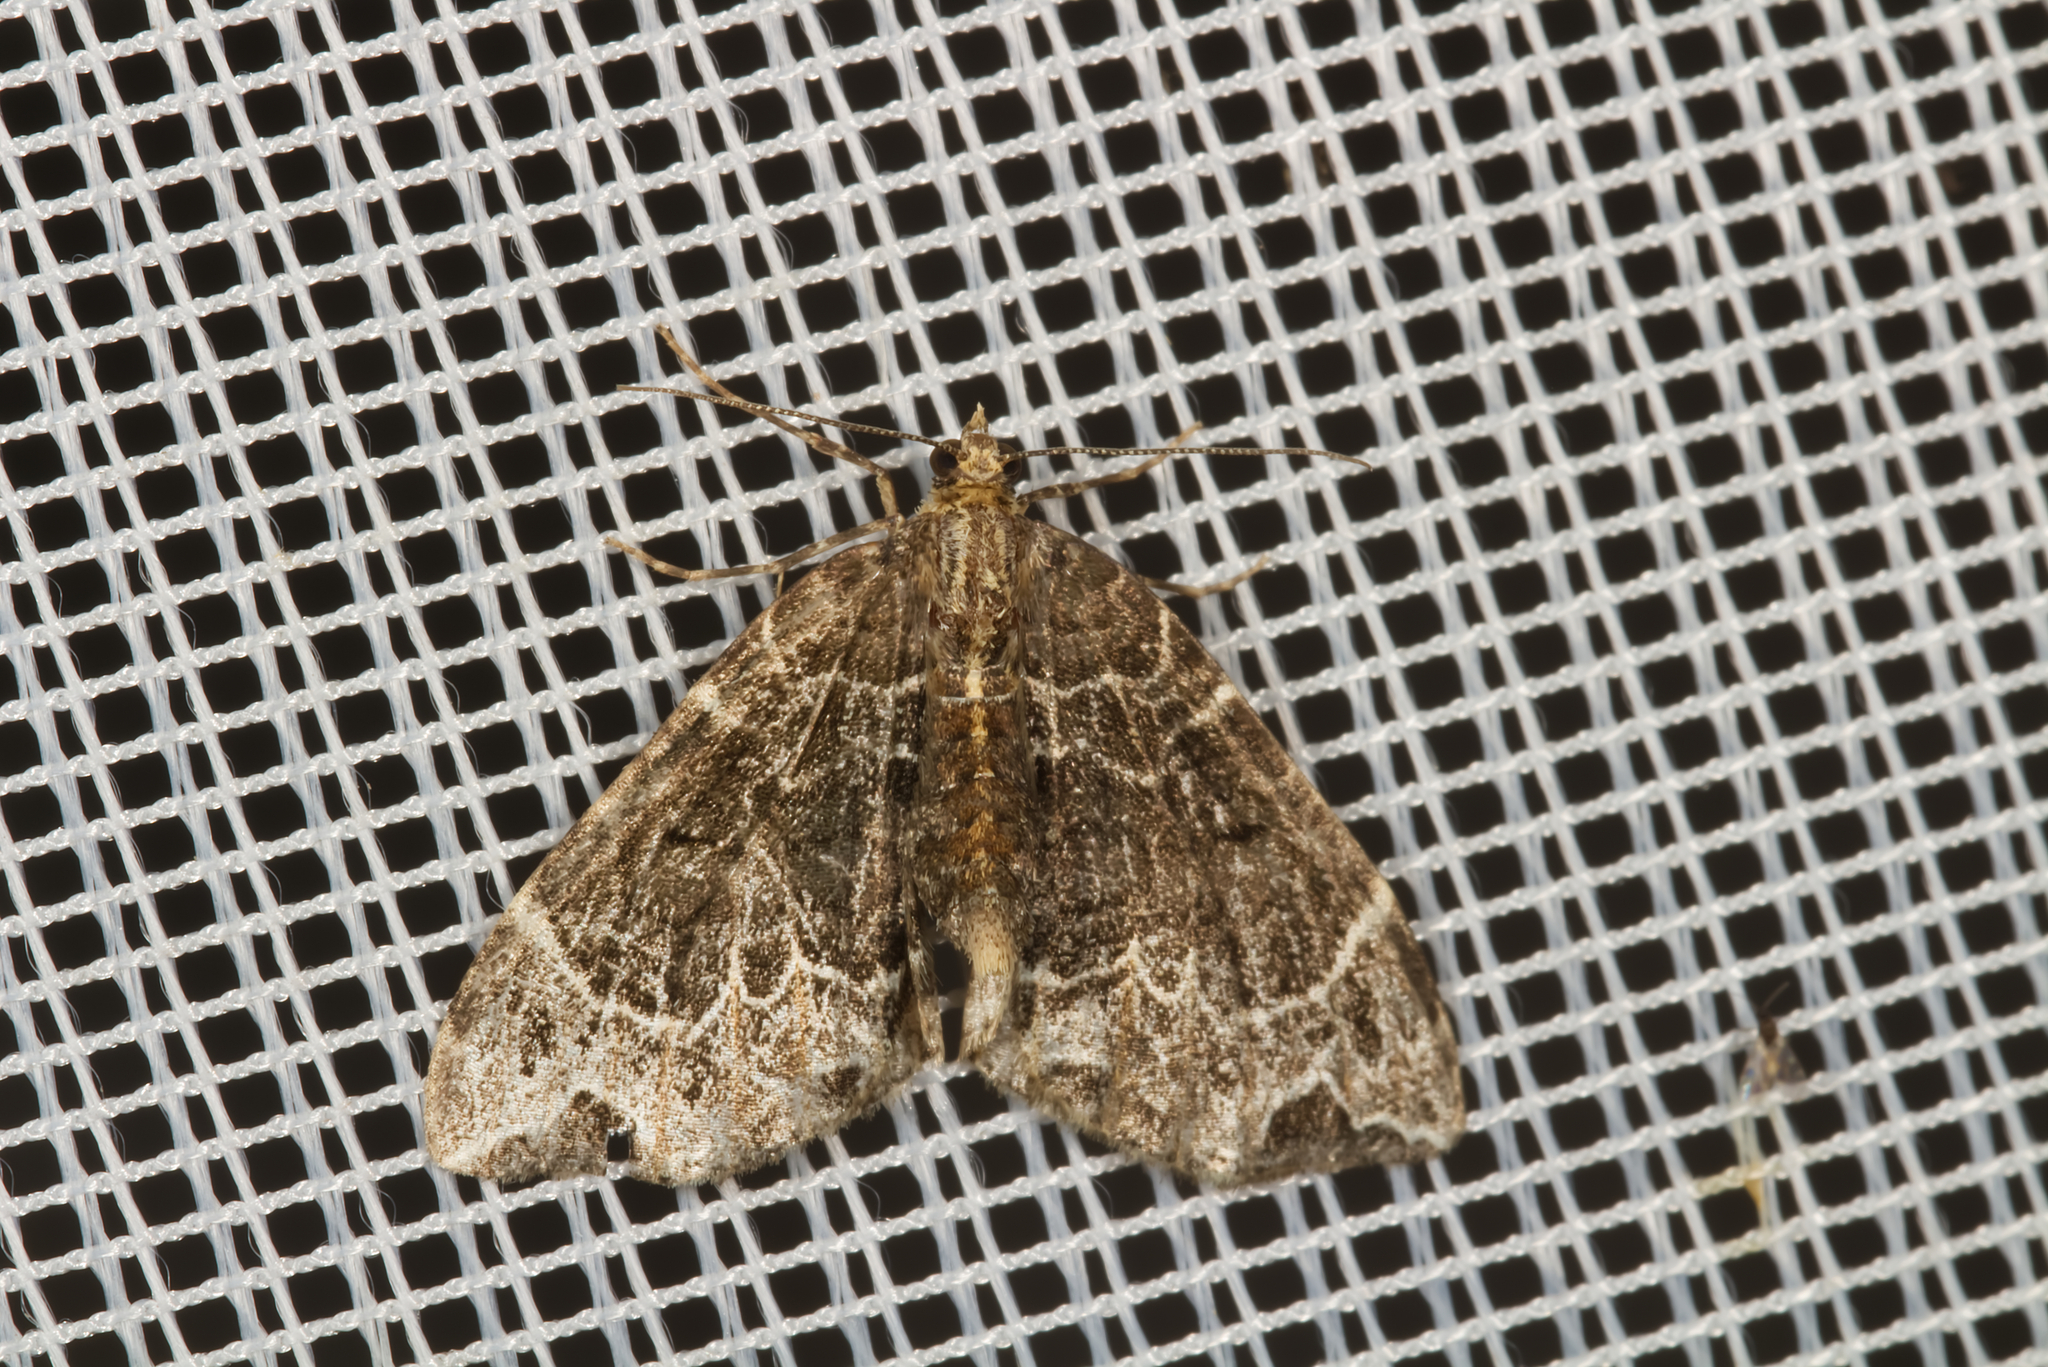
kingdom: Animalia
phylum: Arthropoda
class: Insecta
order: Lepidoptera
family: Geometridae
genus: Ecliptopera
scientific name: Ecliptopera silaceata
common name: Small phoenix
